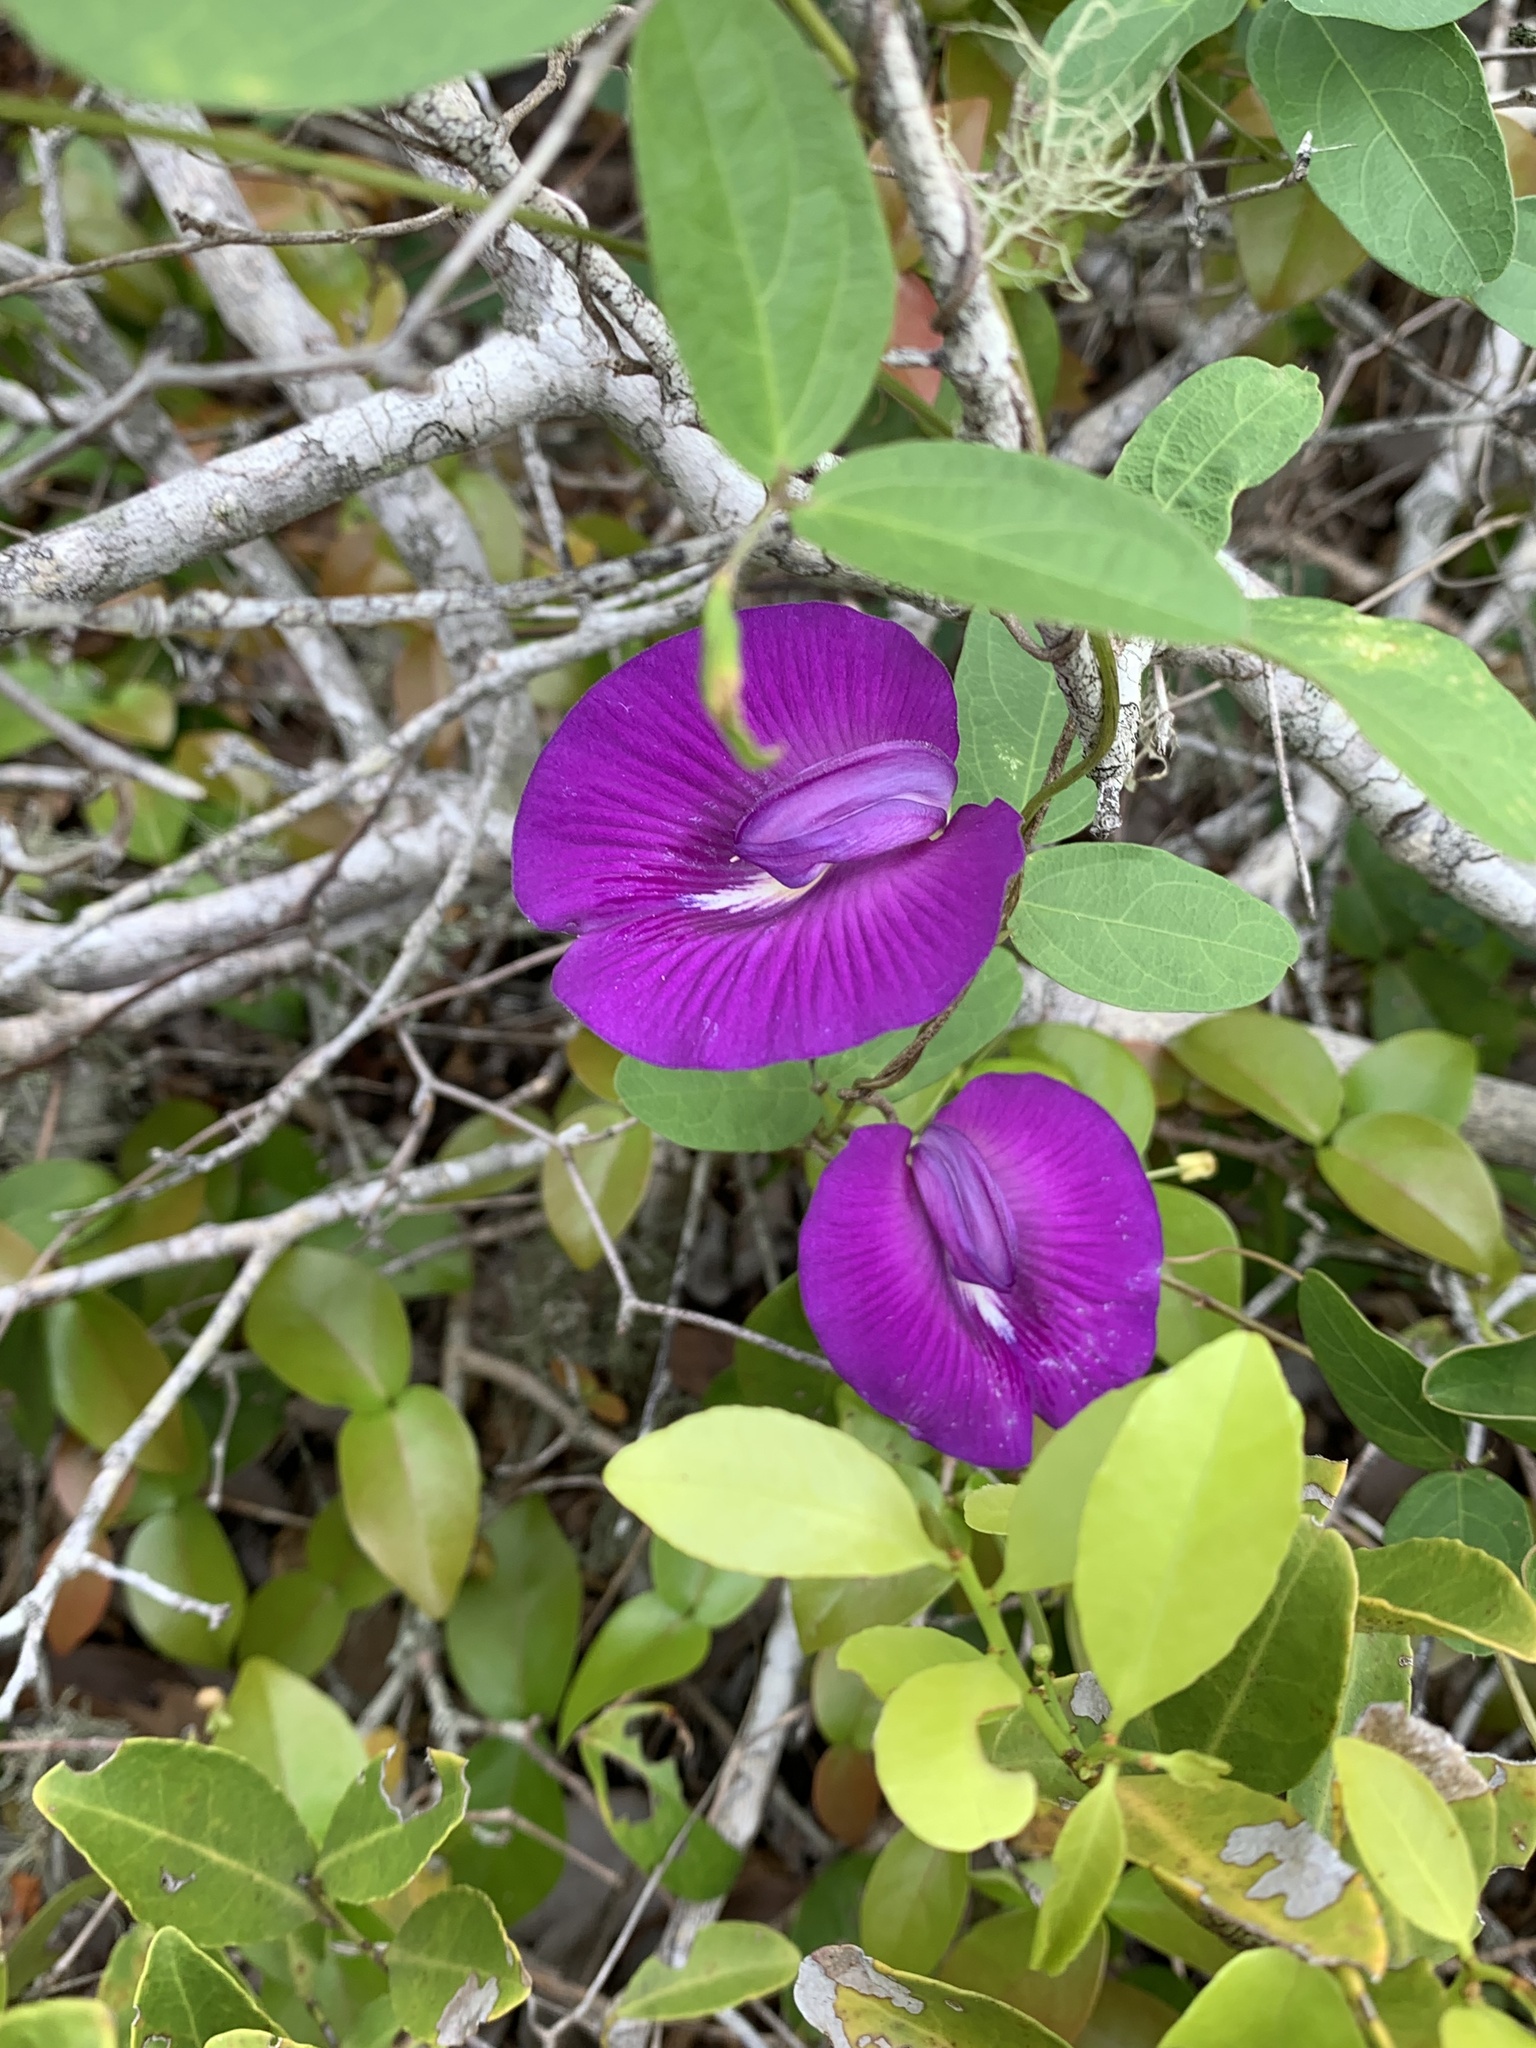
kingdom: Plantae
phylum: Tracheophyta
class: Magnoliopsida
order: Fabales
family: Fabaceae
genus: Centrosema
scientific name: Centrosema brasilianum
